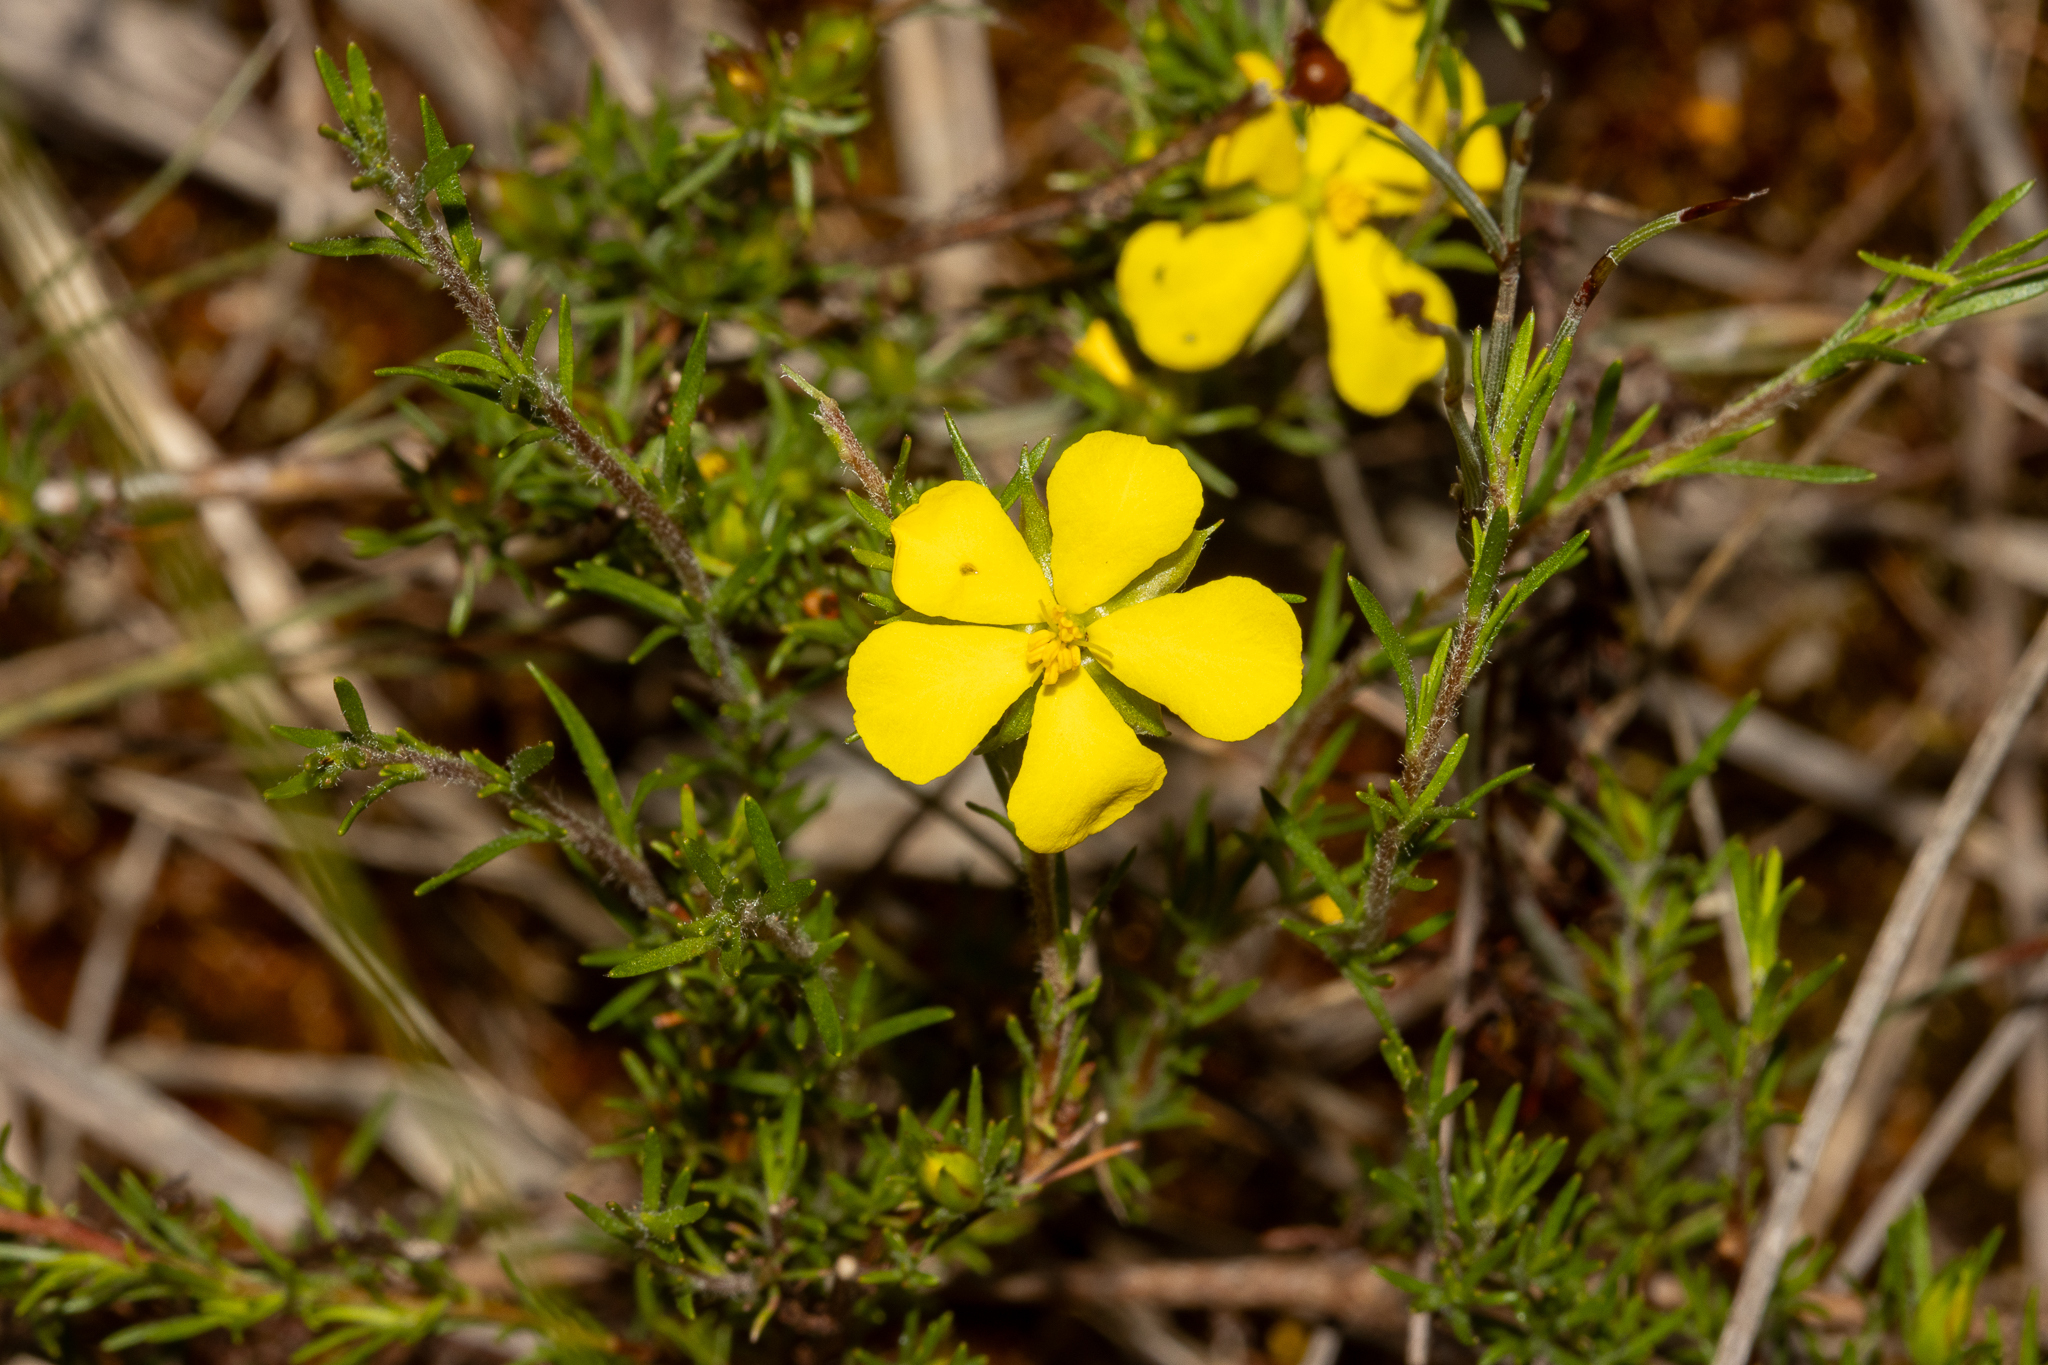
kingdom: Plantae
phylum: Tracheophyta
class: Magnoliopsida
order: Dilleniales
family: Dilleniaceae
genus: Hibbertia
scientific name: Hibbertia fasciculata
